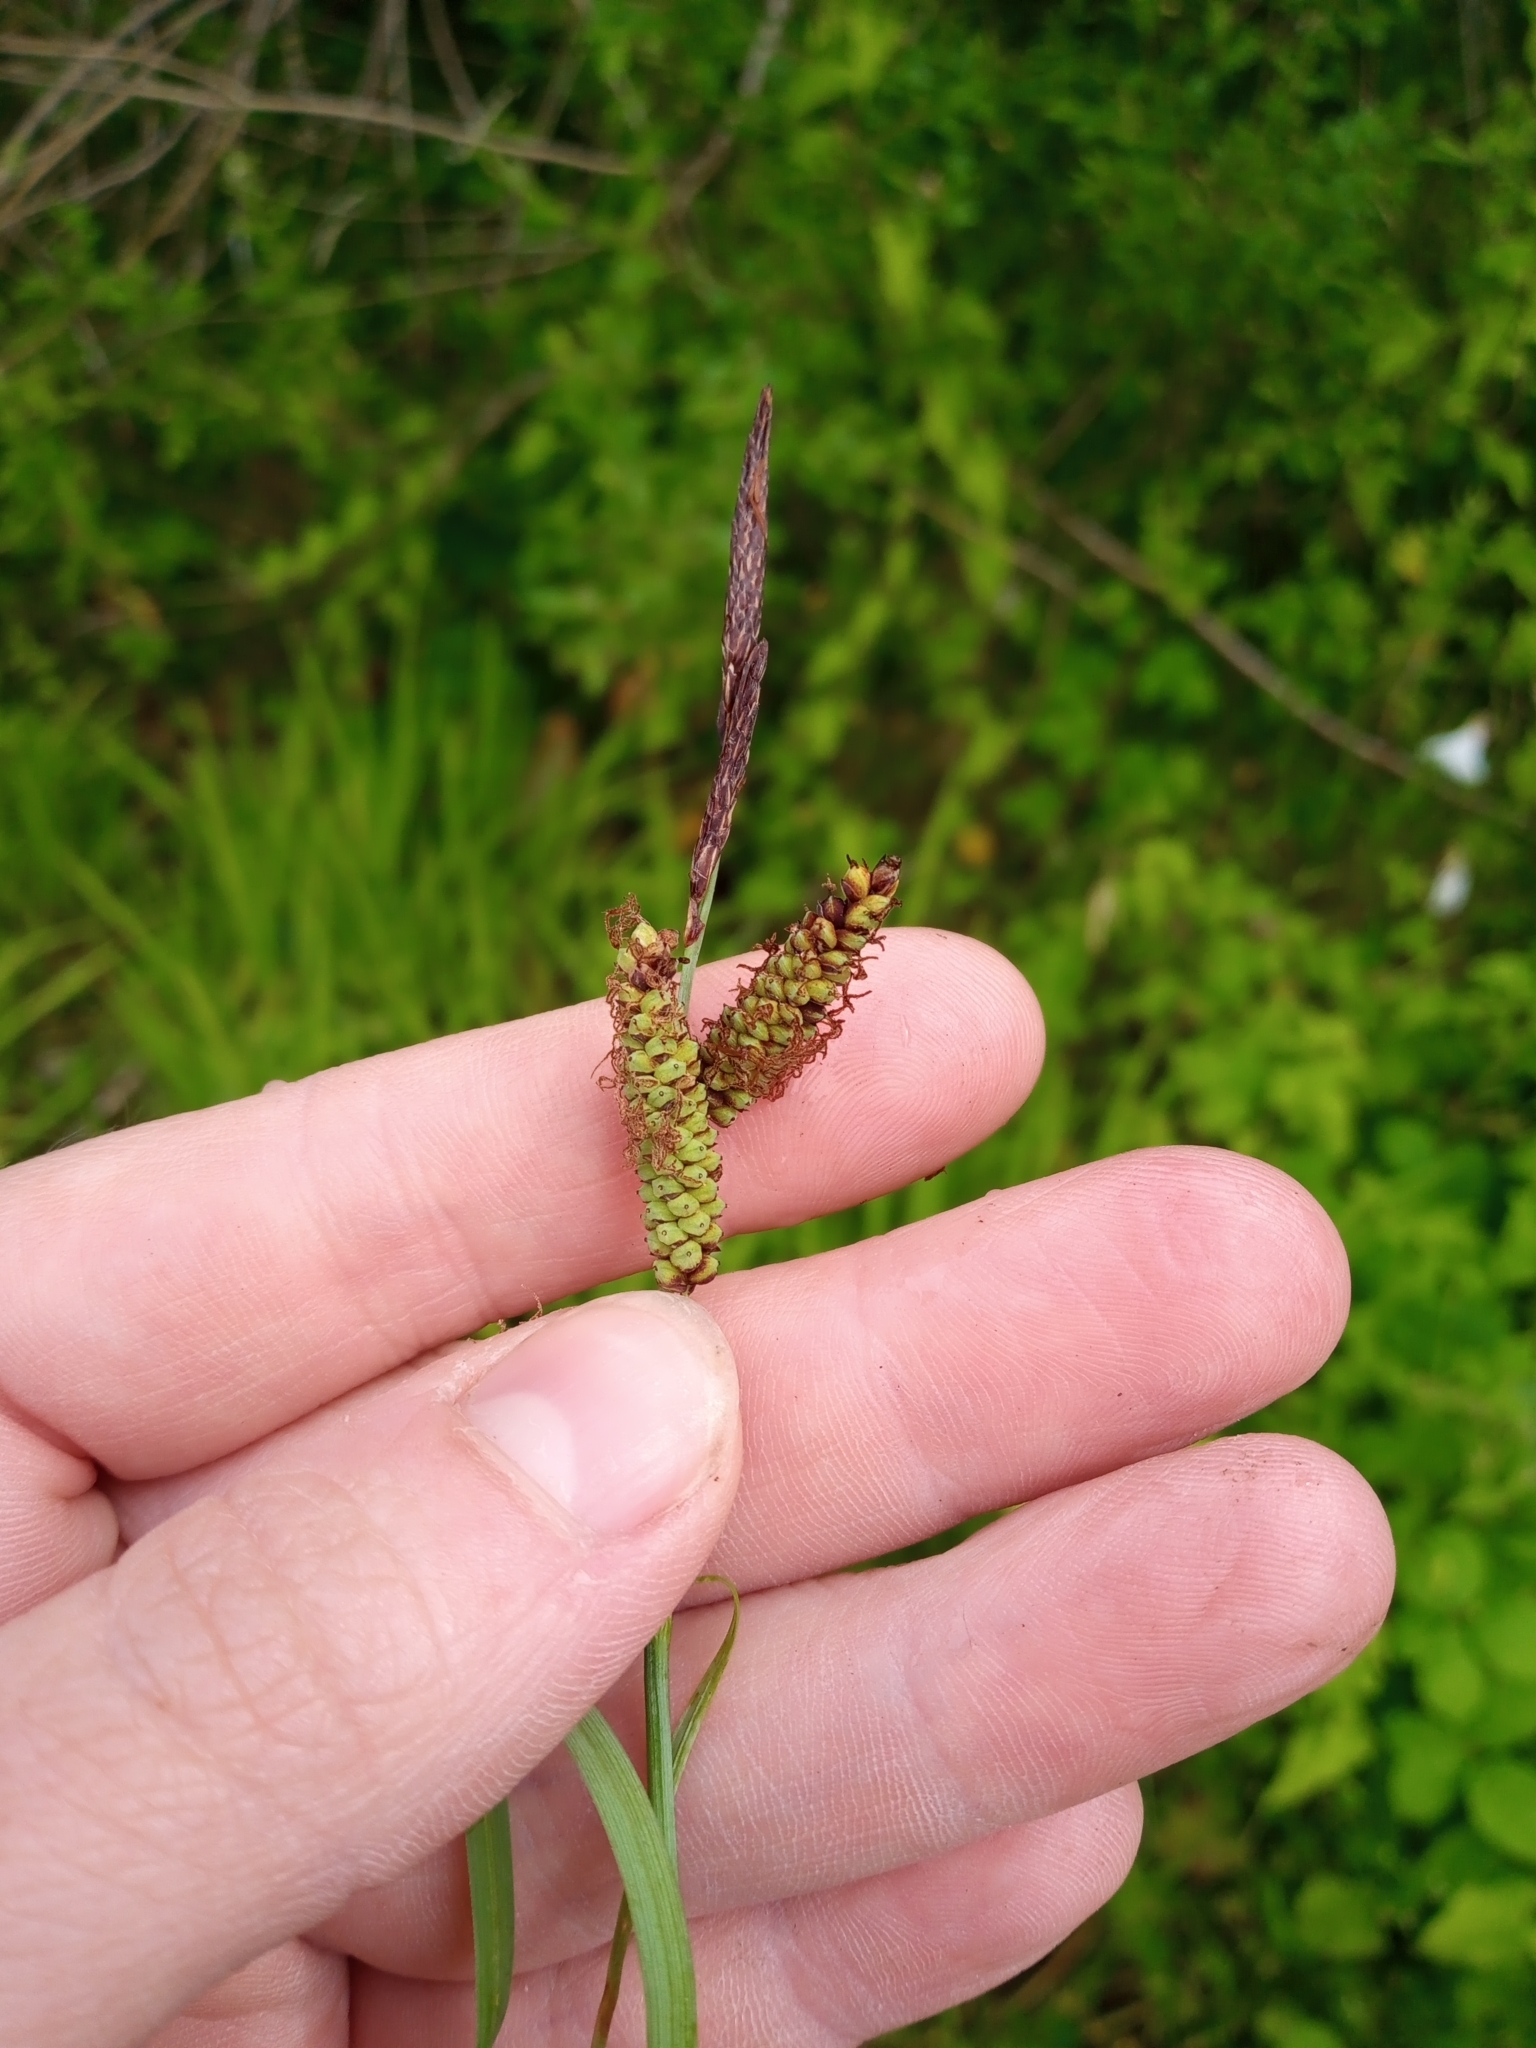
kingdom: Plantae
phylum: Tracheophyta
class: Liliopsida
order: Poales
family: Cyperaceae
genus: Carex
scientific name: Carex flacca
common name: Glaucous sedge
